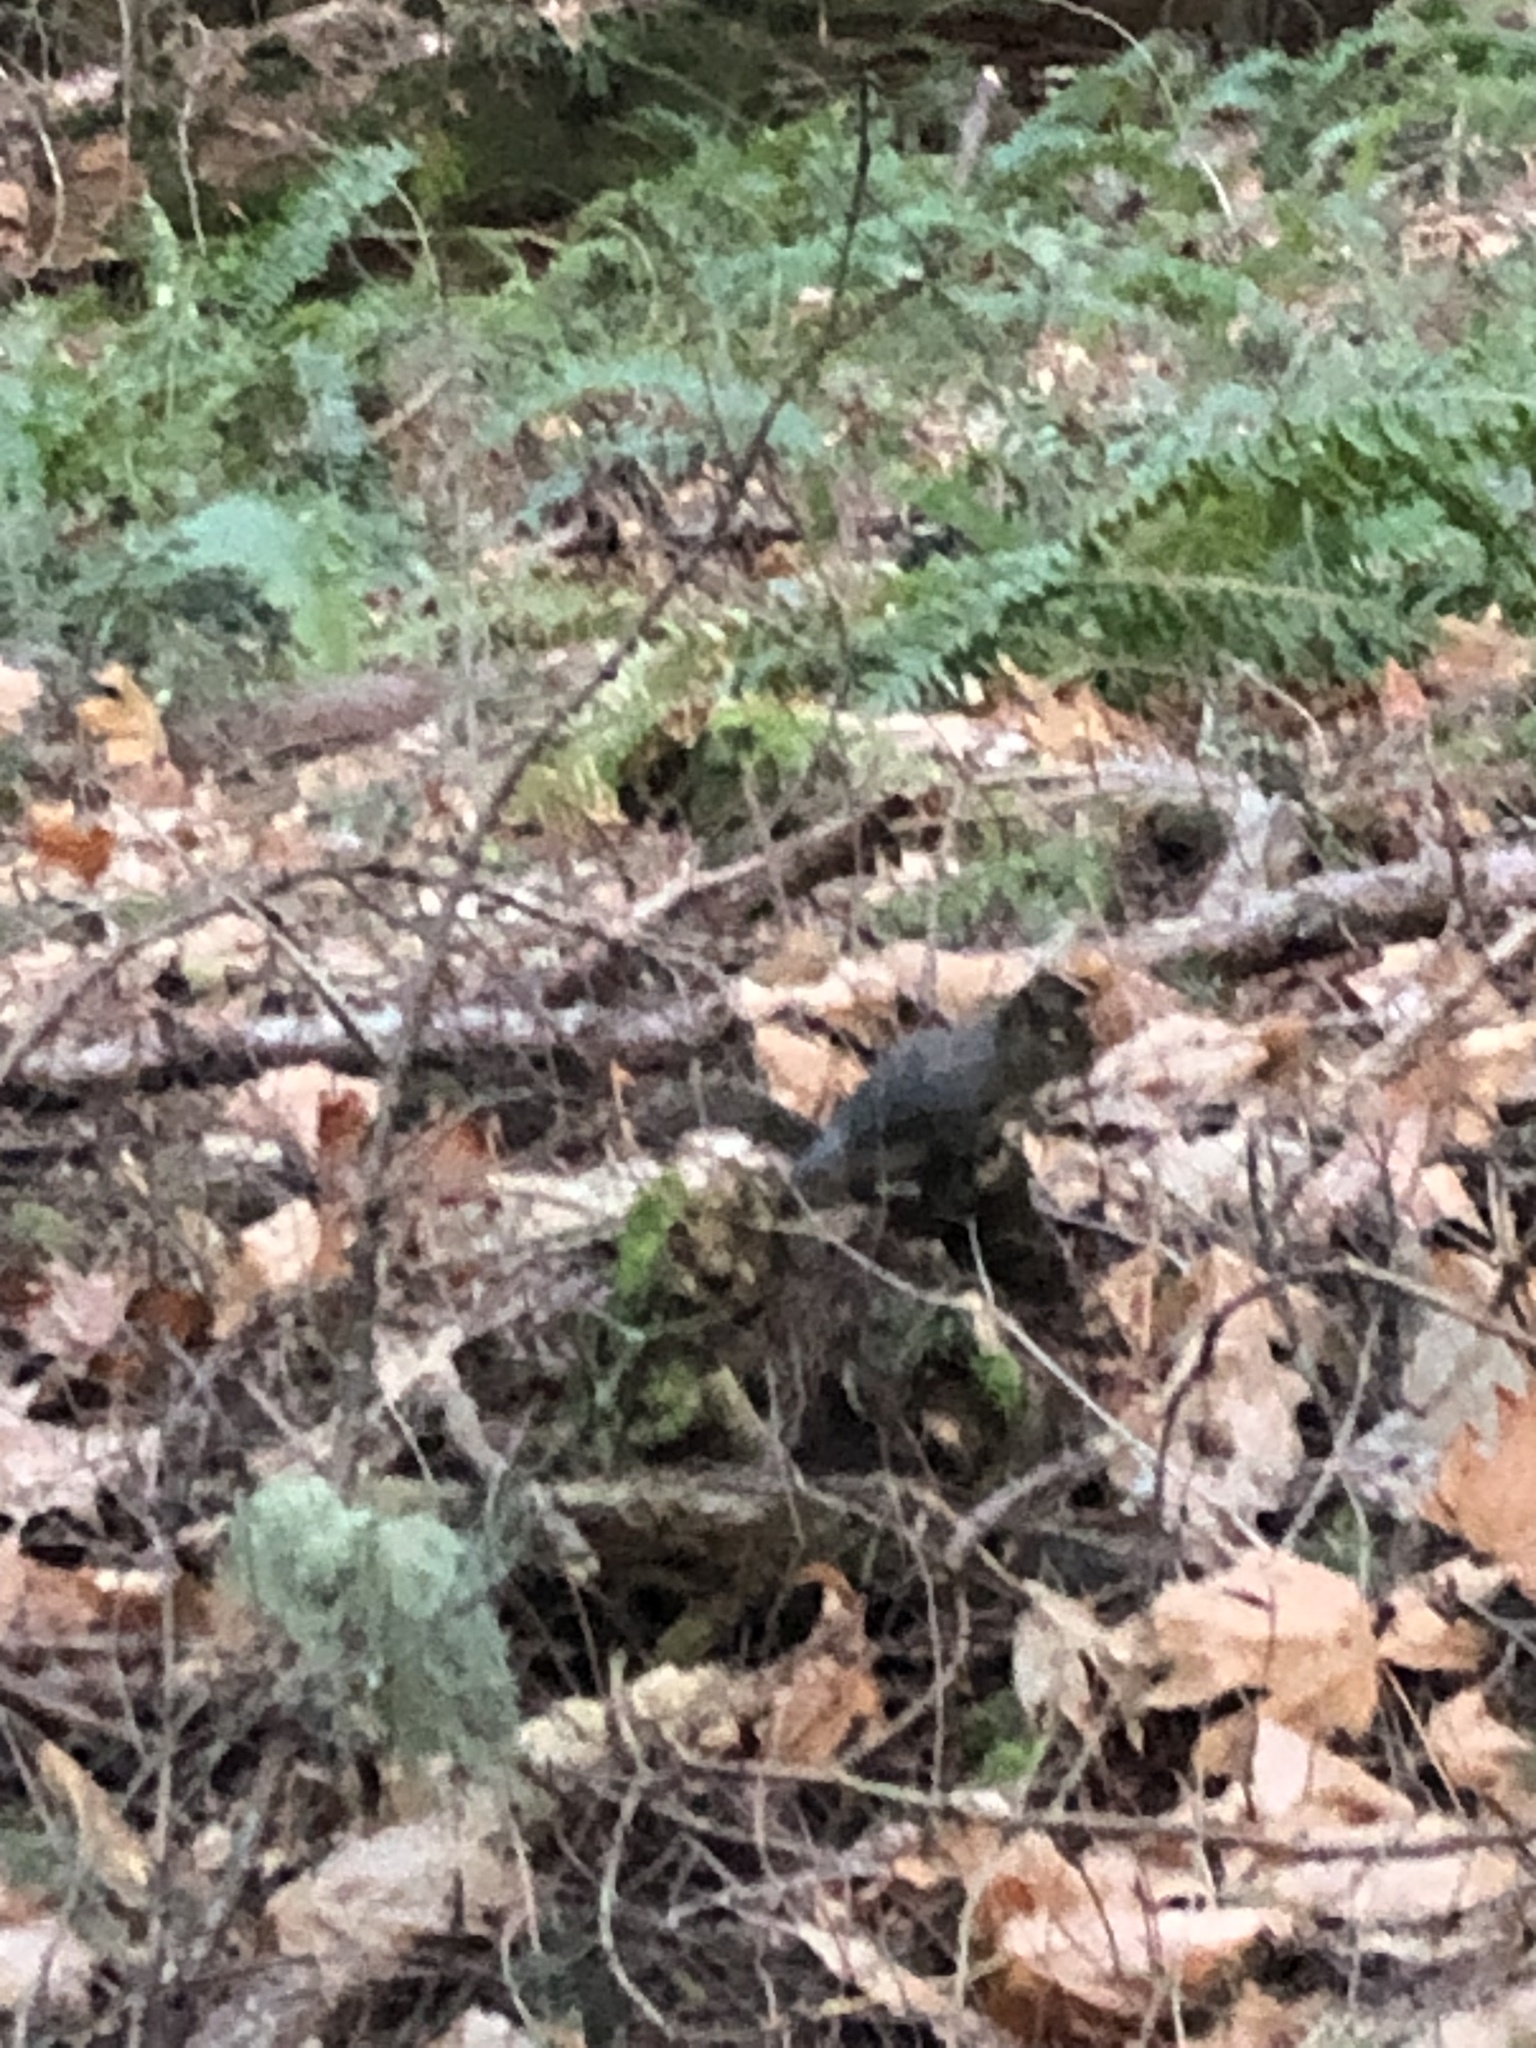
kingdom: Animalia
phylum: Chordata
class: Mammalia
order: Rodentia
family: Sciuridae
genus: Tamiasciurus
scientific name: Tamiasciurus douglasii
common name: Douglas's squirrel
